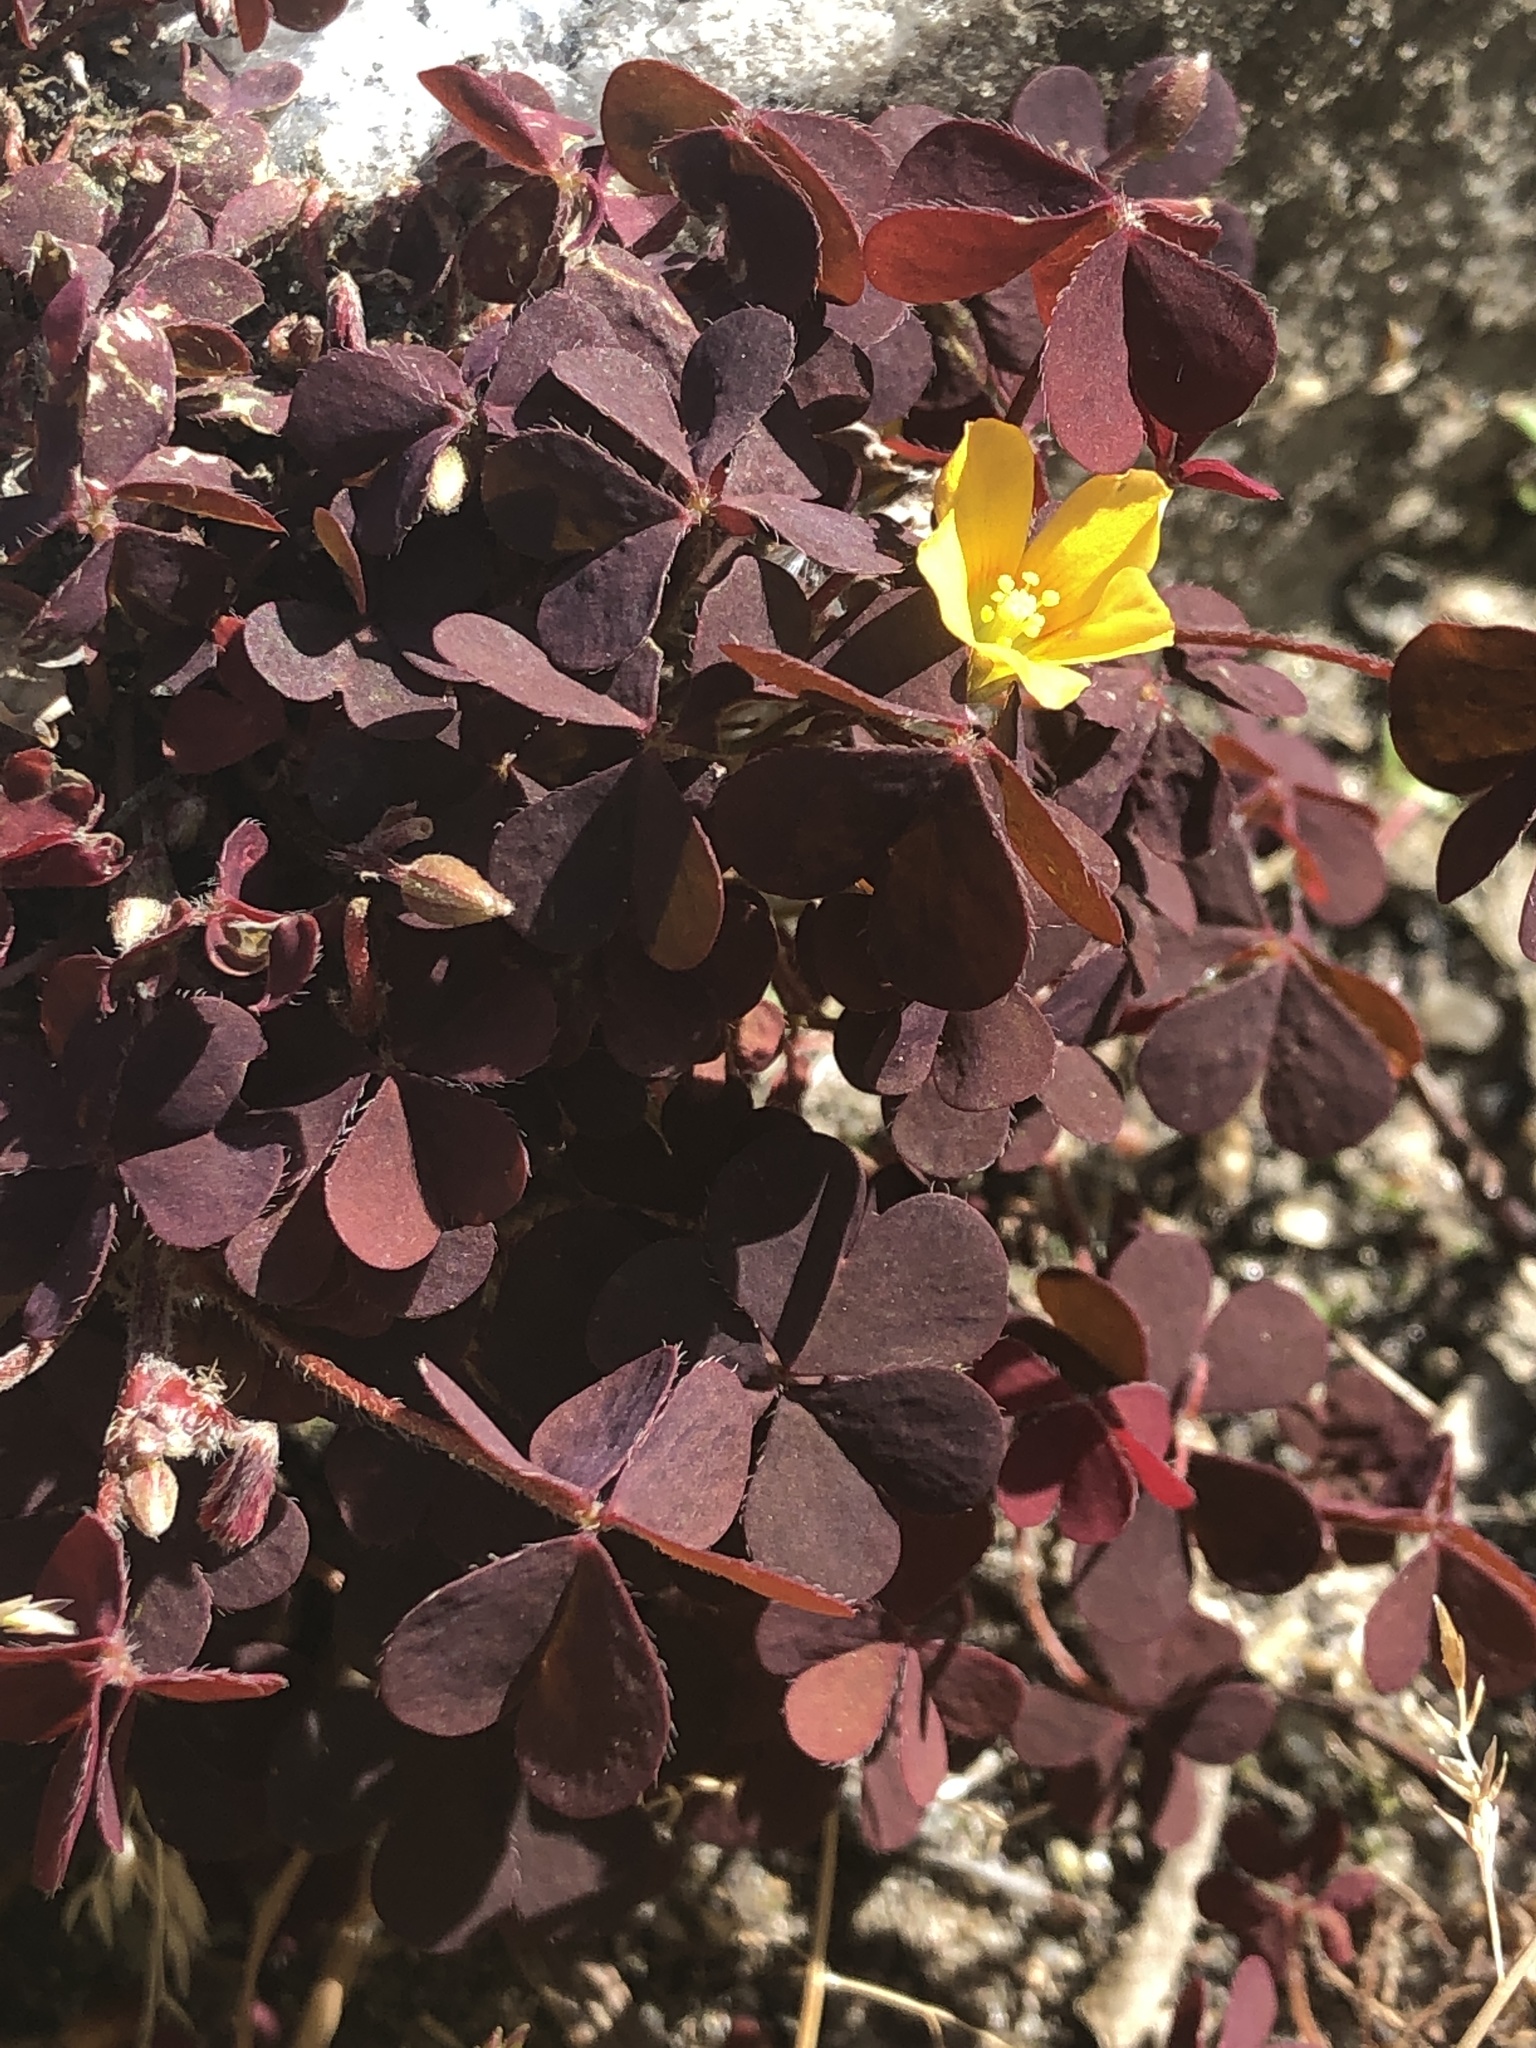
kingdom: Plantae
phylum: Tracheophyta
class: Magnoliopsida
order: Oxalidales
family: Oxalidaceae
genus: Oxalis
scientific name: Oxalis corniculata
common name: Procumbent yellow-sorrel
